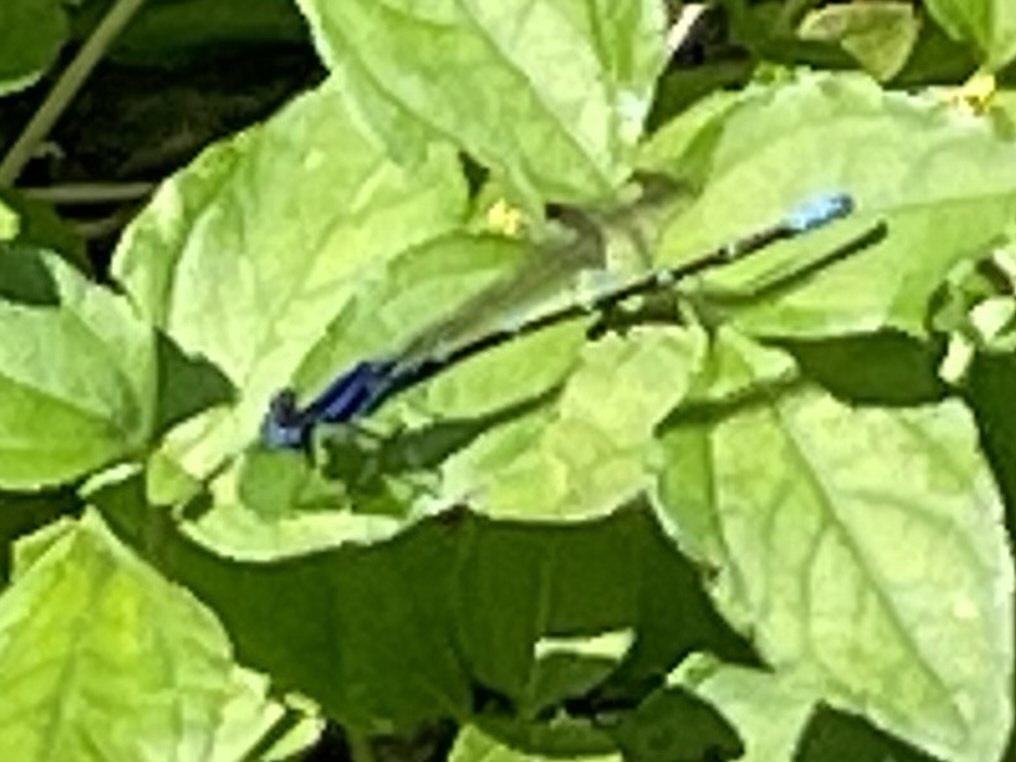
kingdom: Animalia
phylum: Arthropoda
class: Insecta
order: Odonata
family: Coenagrionidae
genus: Argia
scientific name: Argia sedula
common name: Blue-ringed dancer
